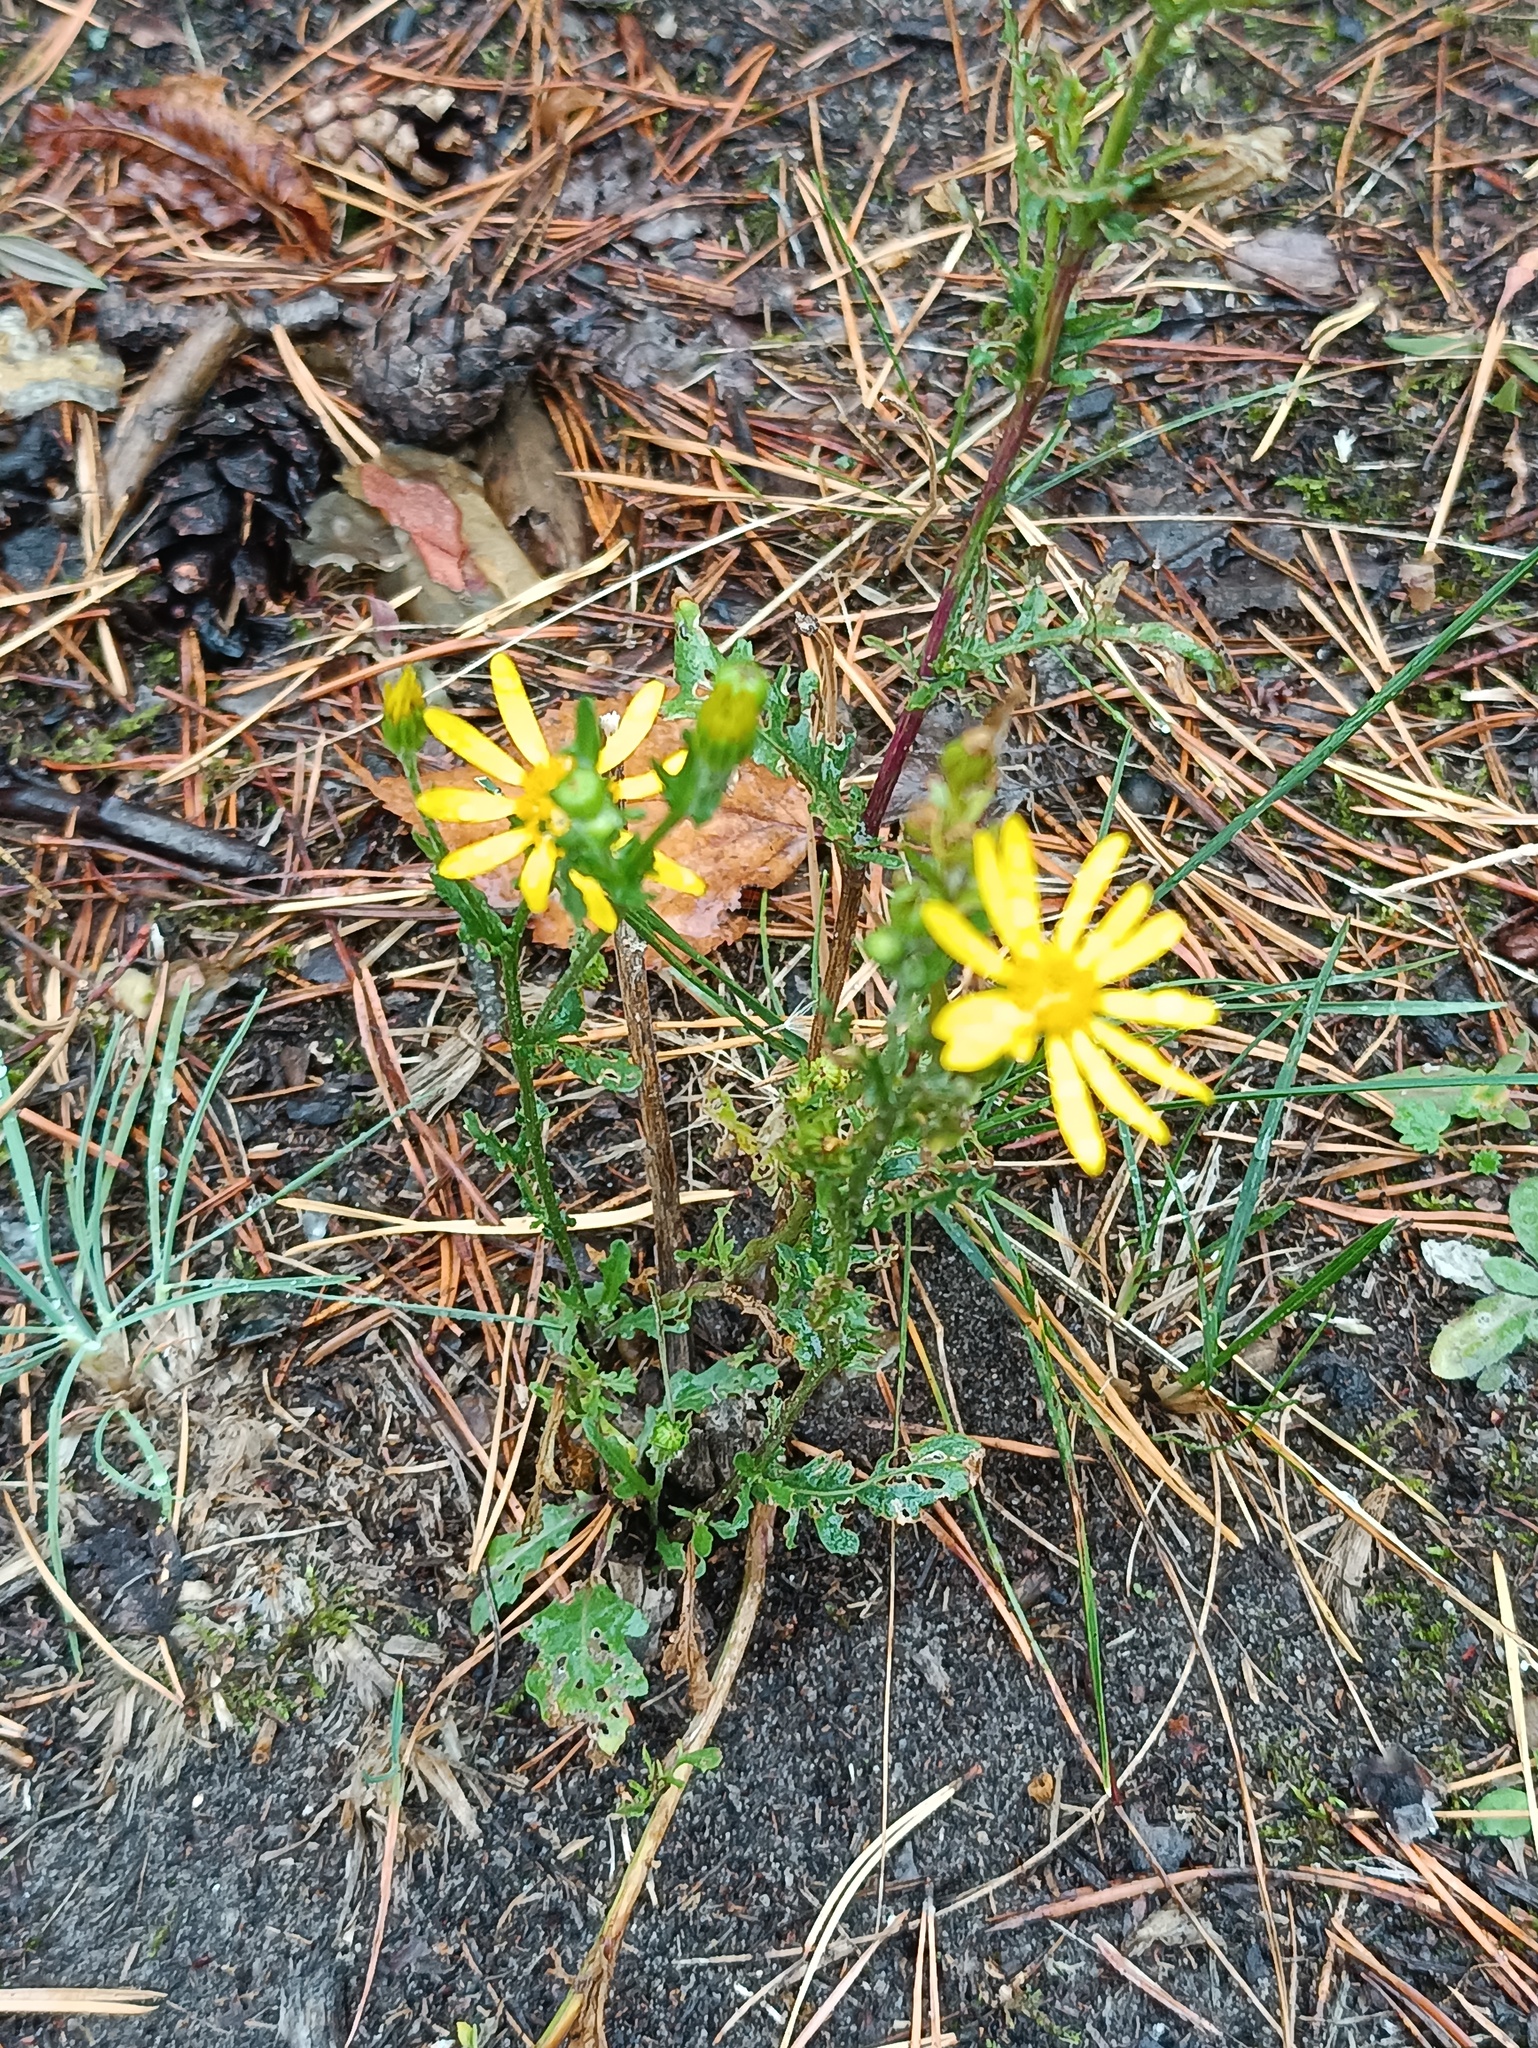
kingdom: Plantae
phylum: Tracheophyta
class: Magnoliopsida
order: Asterales
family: Asteraceae
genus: Jacobaea
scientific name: Jacobaea vulgaris
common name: Stinking willie
